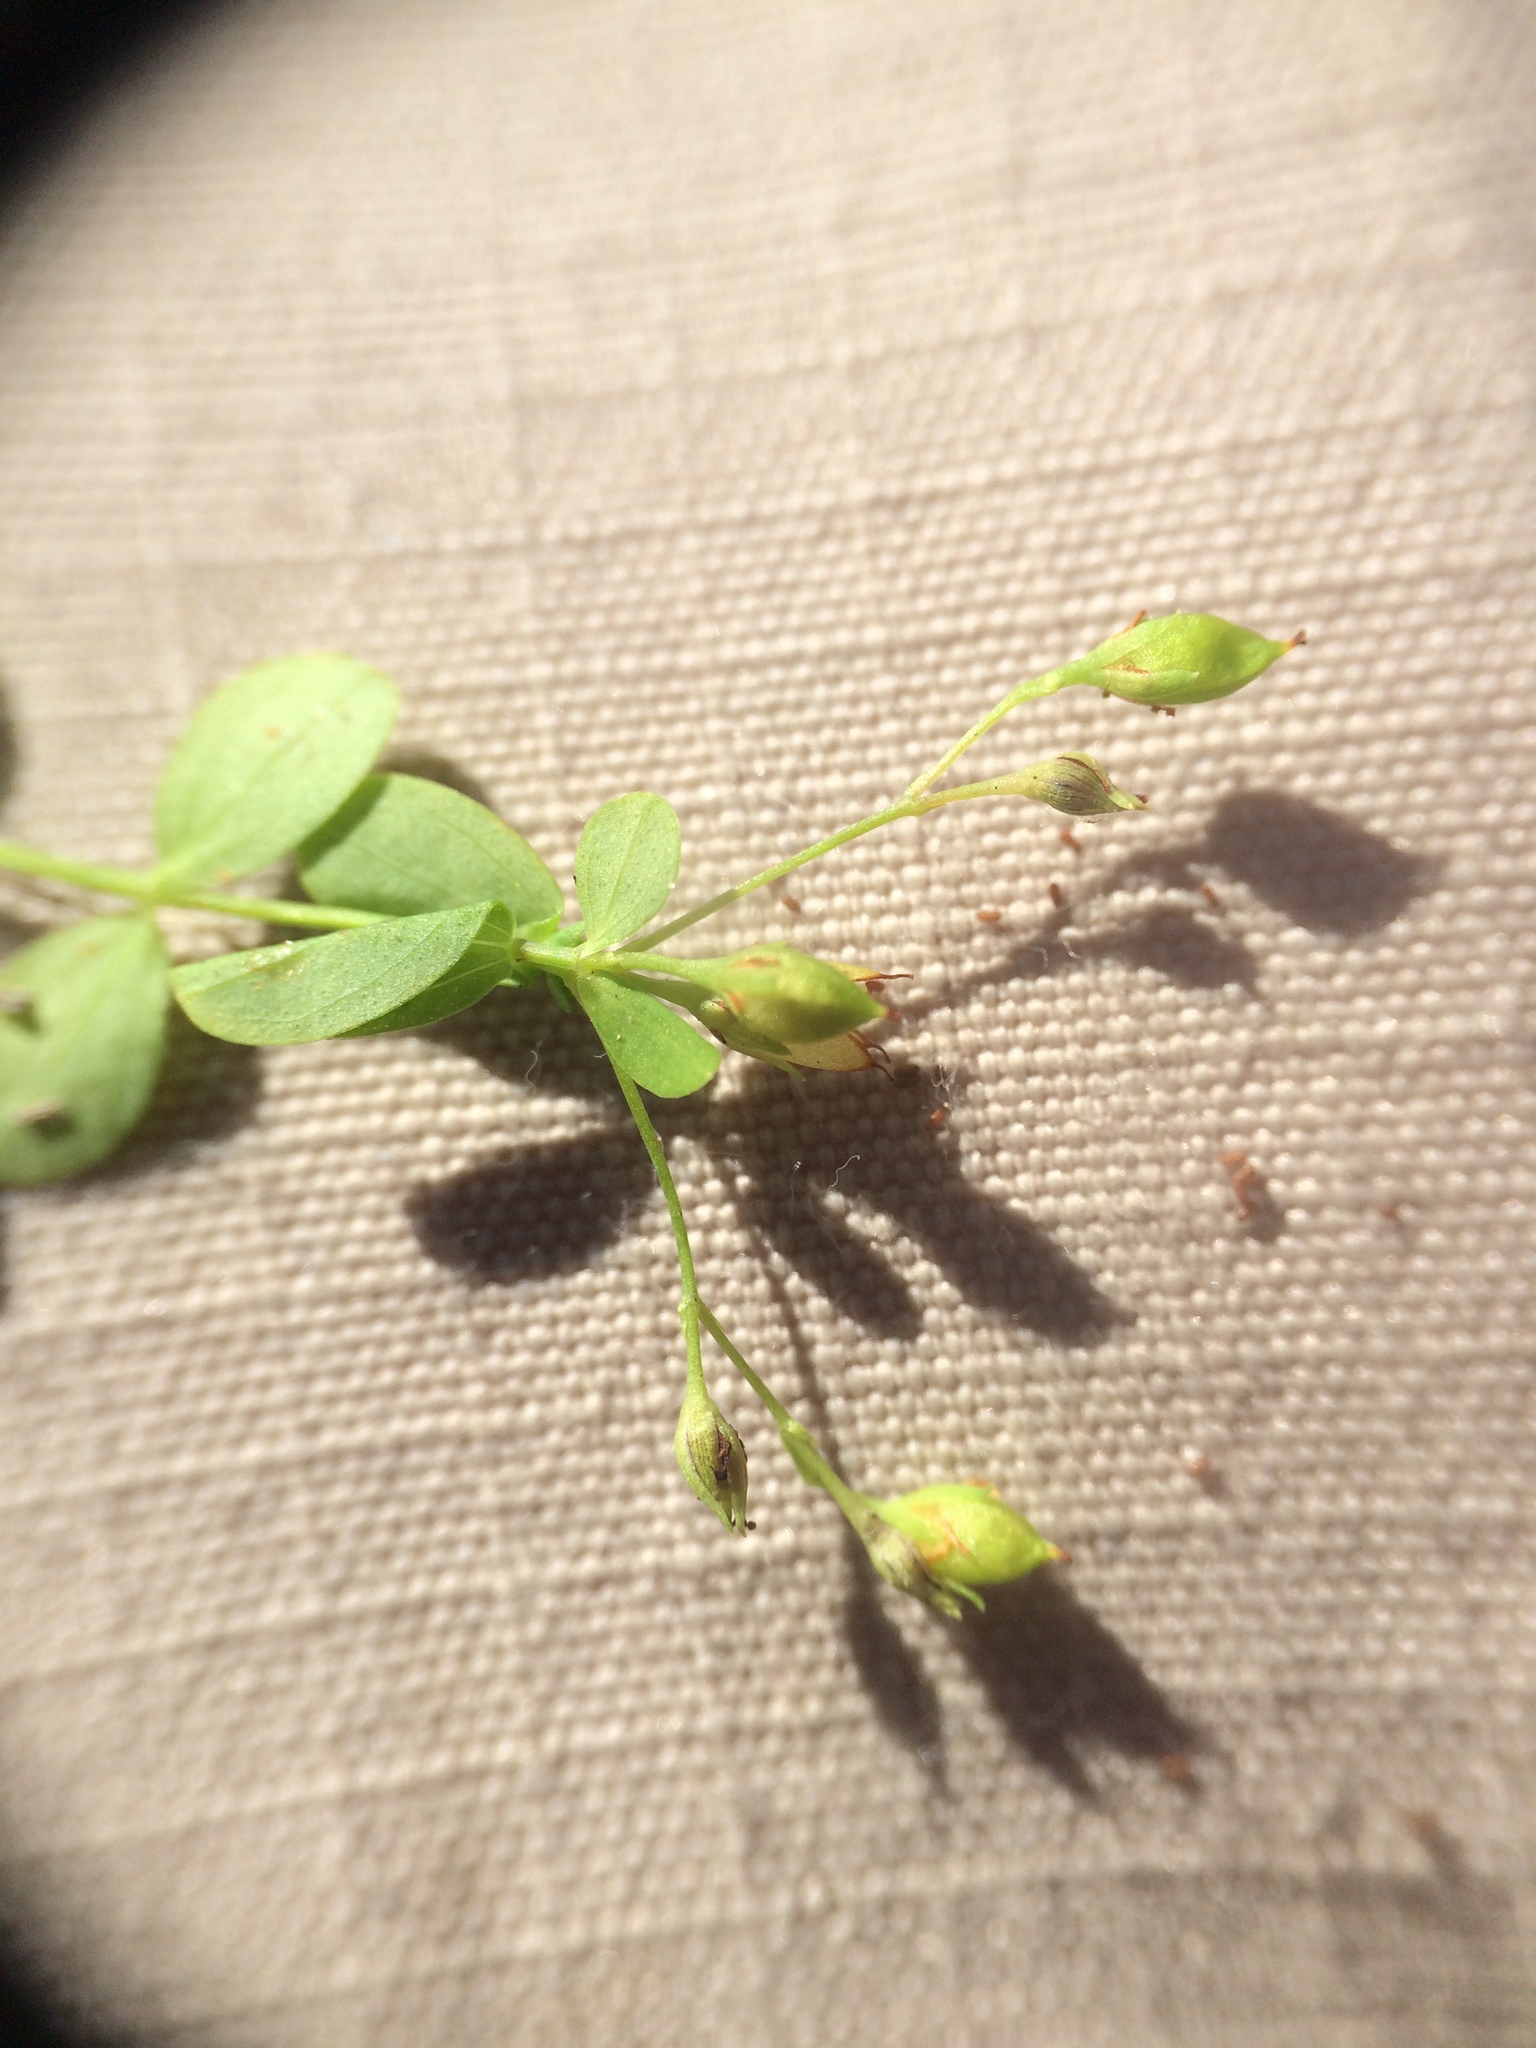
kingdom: Plantae
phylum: Tracheophyta
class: Magnoliopsida
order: Malpighiales
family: Hypericaceae
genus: Hypericum
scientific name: Hypericum mutilum
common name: Dwarf st. john's-wort
